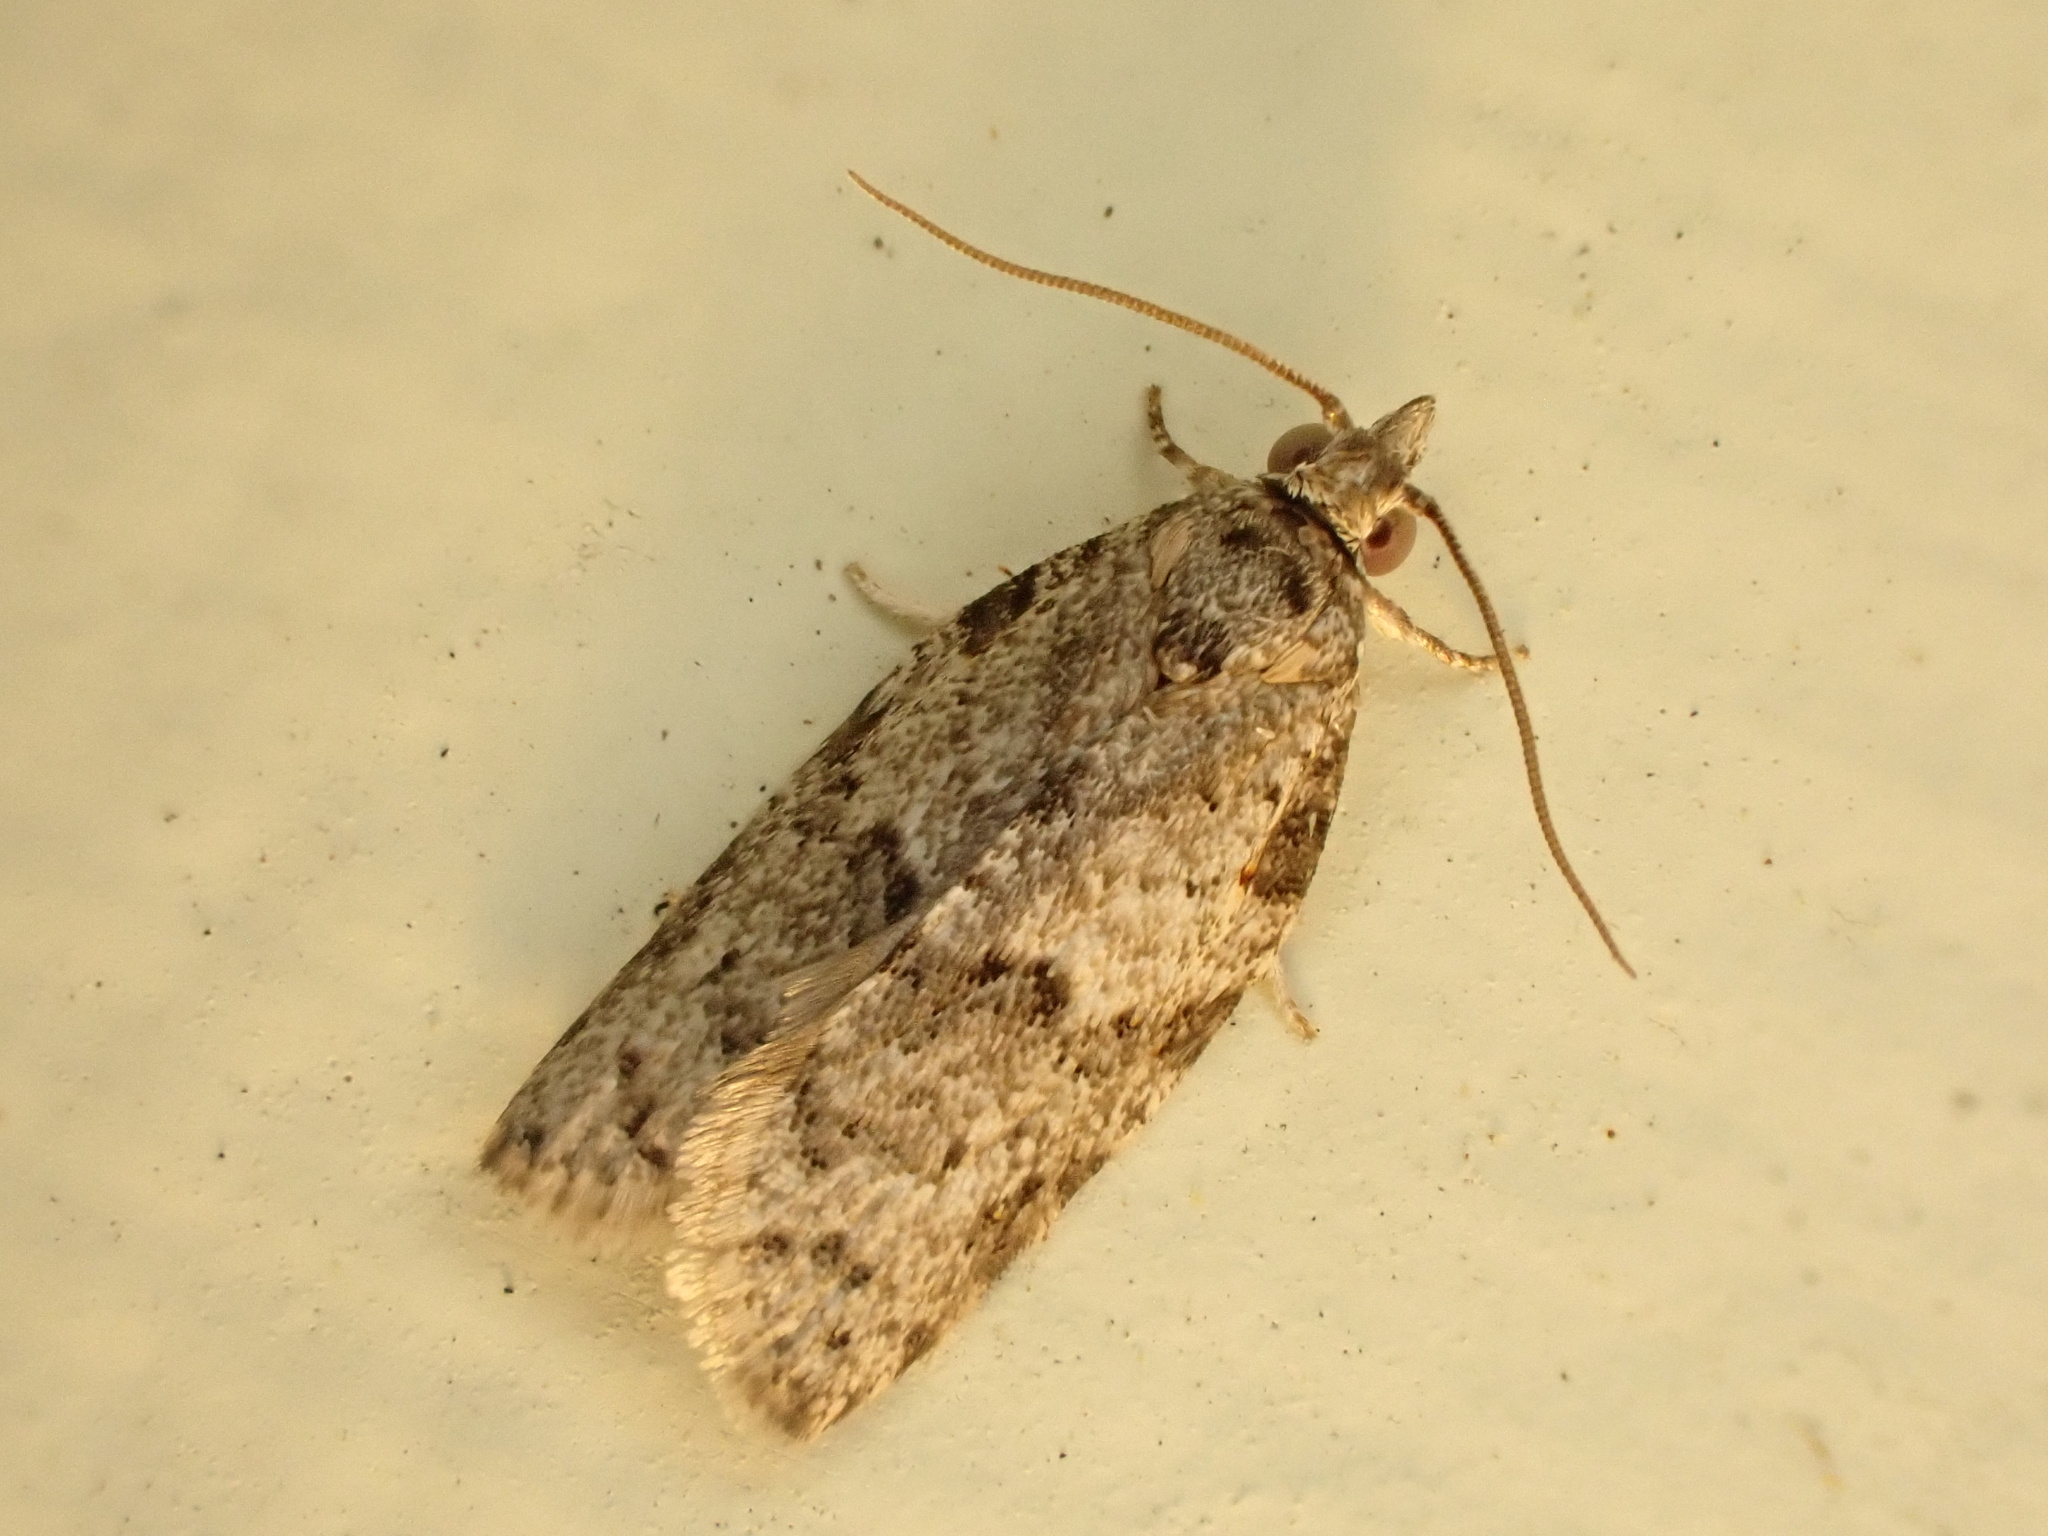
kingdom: Animalia
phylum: Arthropoda
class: Insecta
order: Lepidoptera
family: Tortricidae
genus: Isotenes
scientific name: Isotenes miserana
